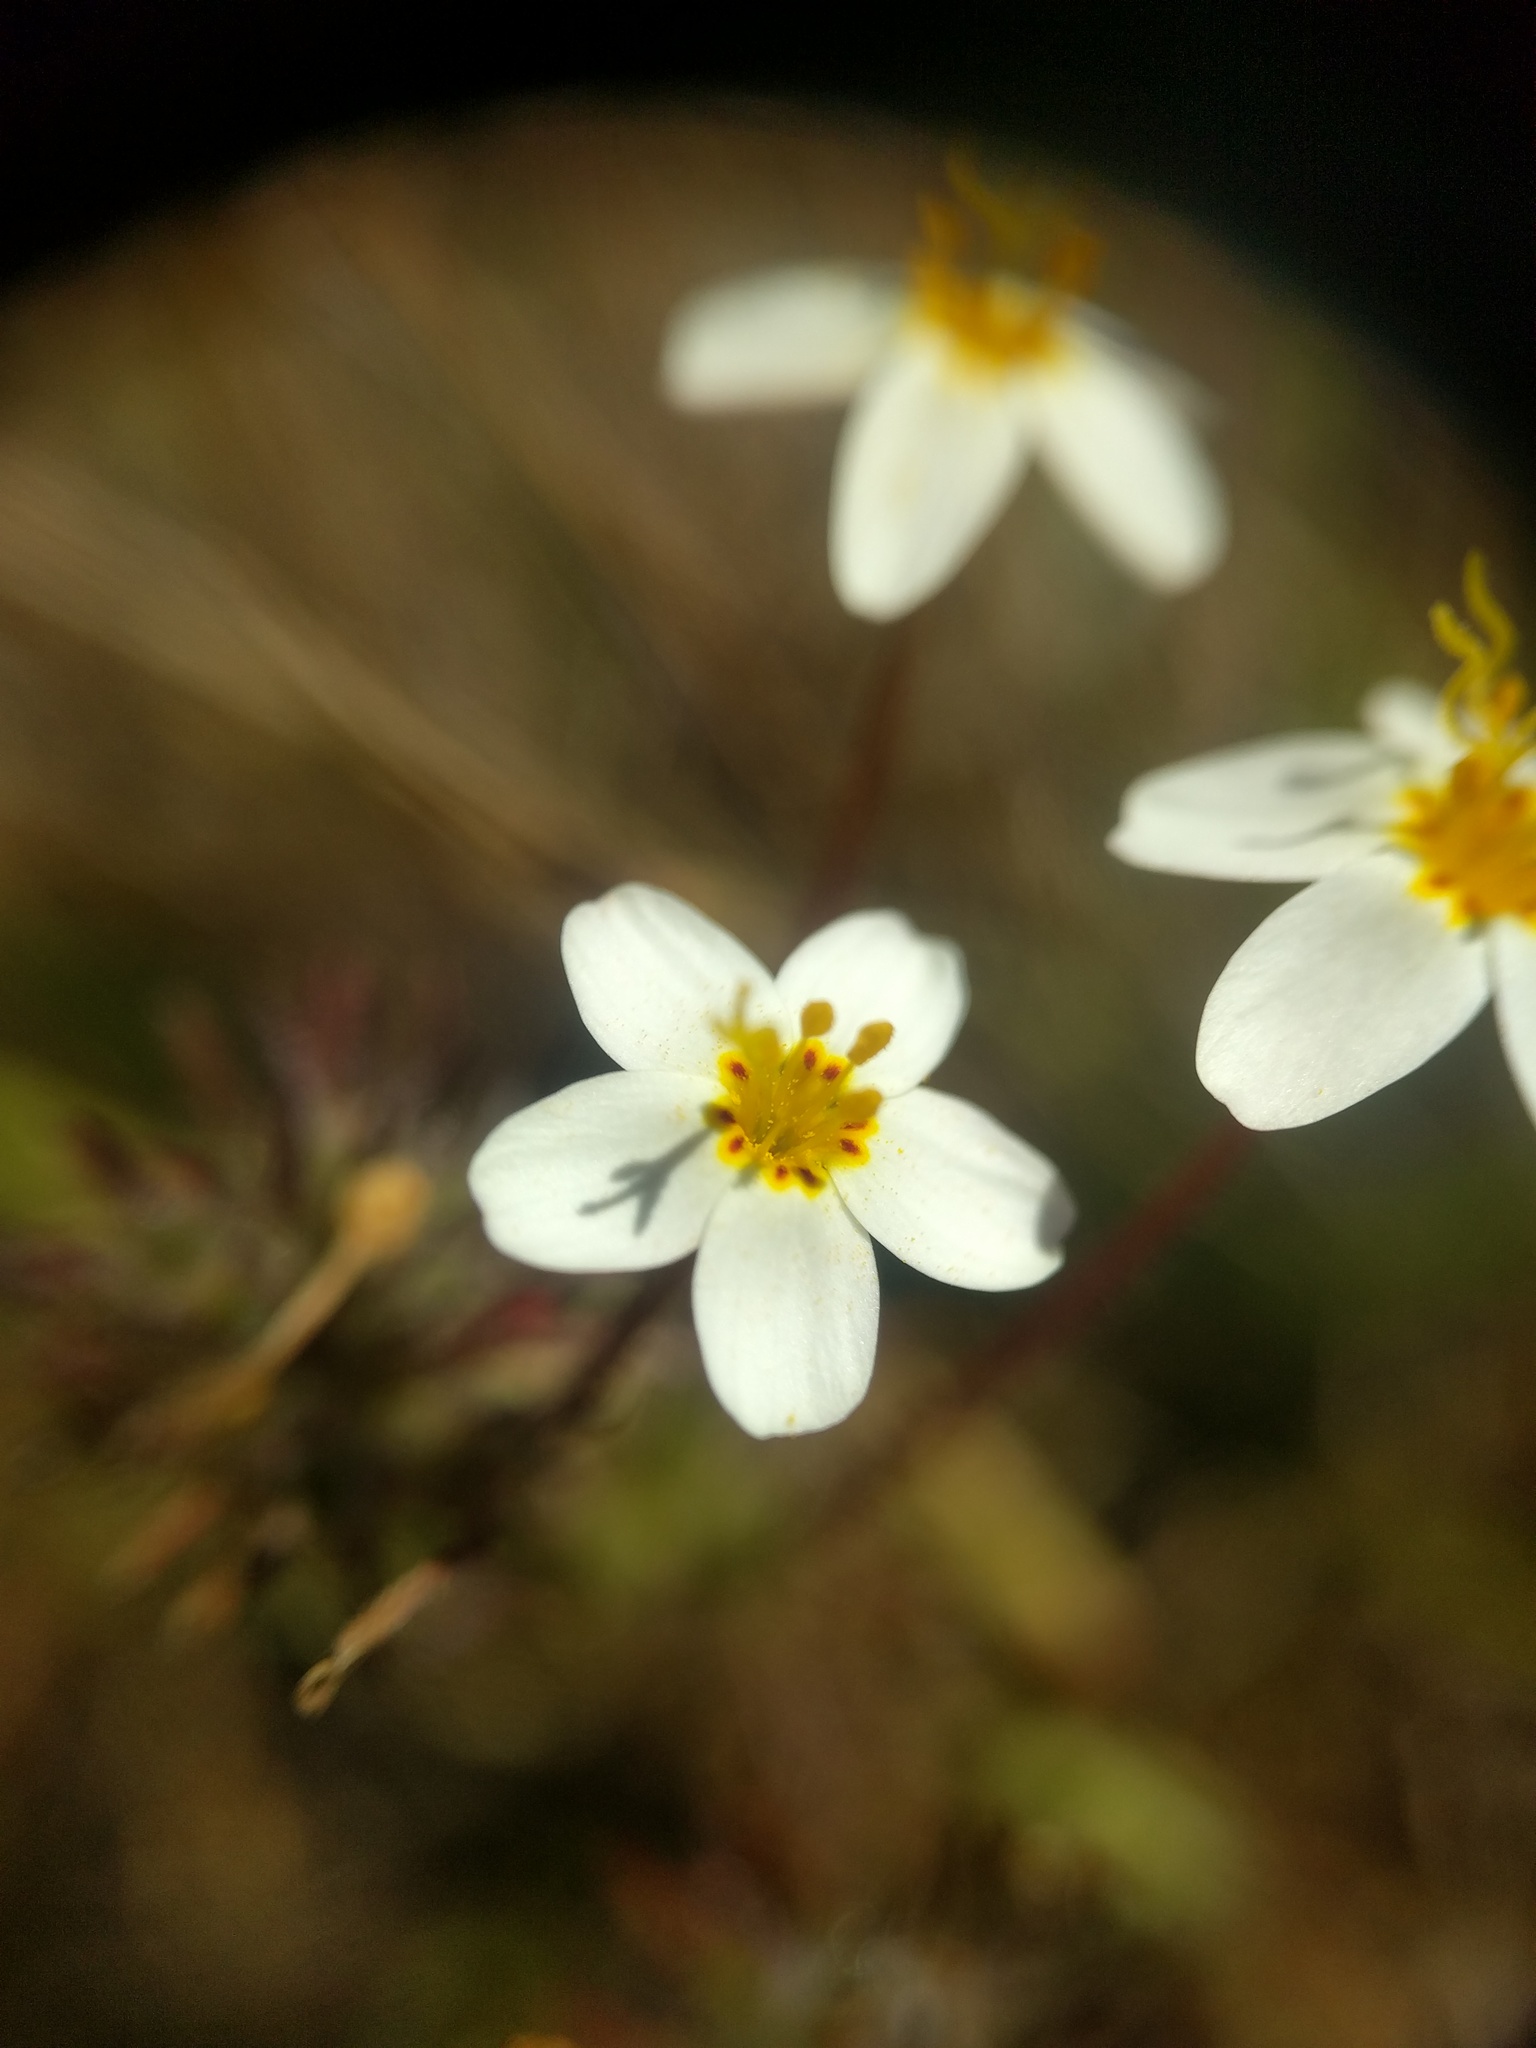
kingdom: Plantae
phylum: Tracheophyta
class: Magnoliopsida
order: Ericales
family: Polemoniaceae
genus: Leptosiphon
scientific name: Leptosiphon parviflorus
